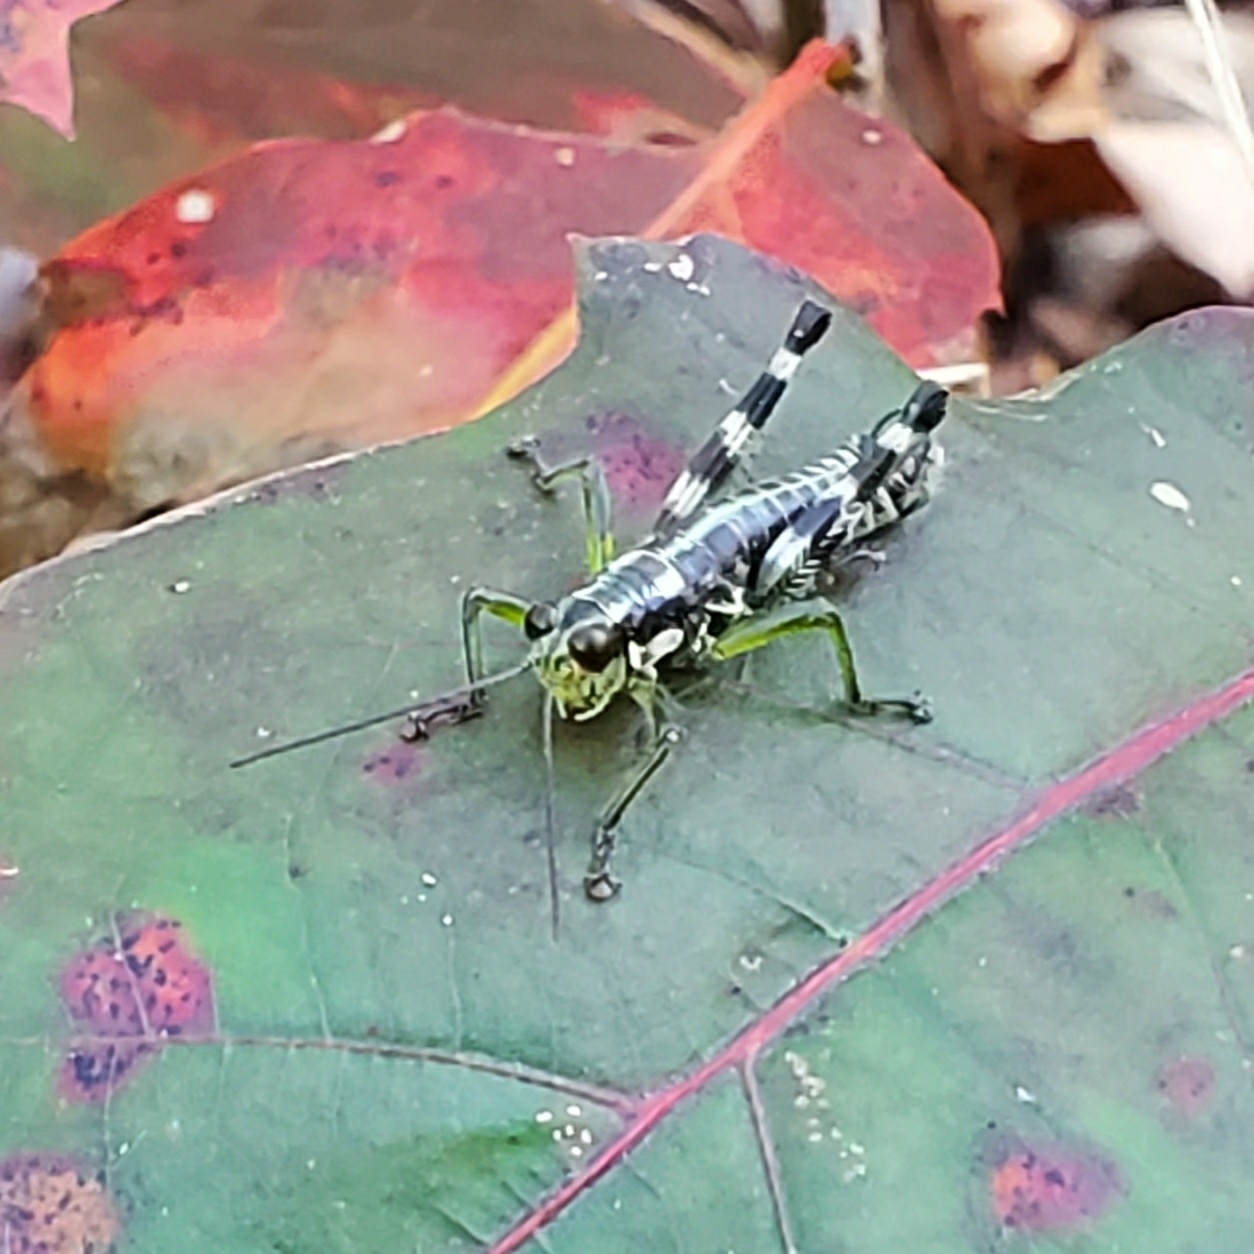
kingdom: Animalia
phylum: Arthropoda
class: Insecta
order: Orthoptera
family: Acrididae
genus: Booneacris
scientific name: Booneacris glacialis
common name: Wingless mountain grasshopper
